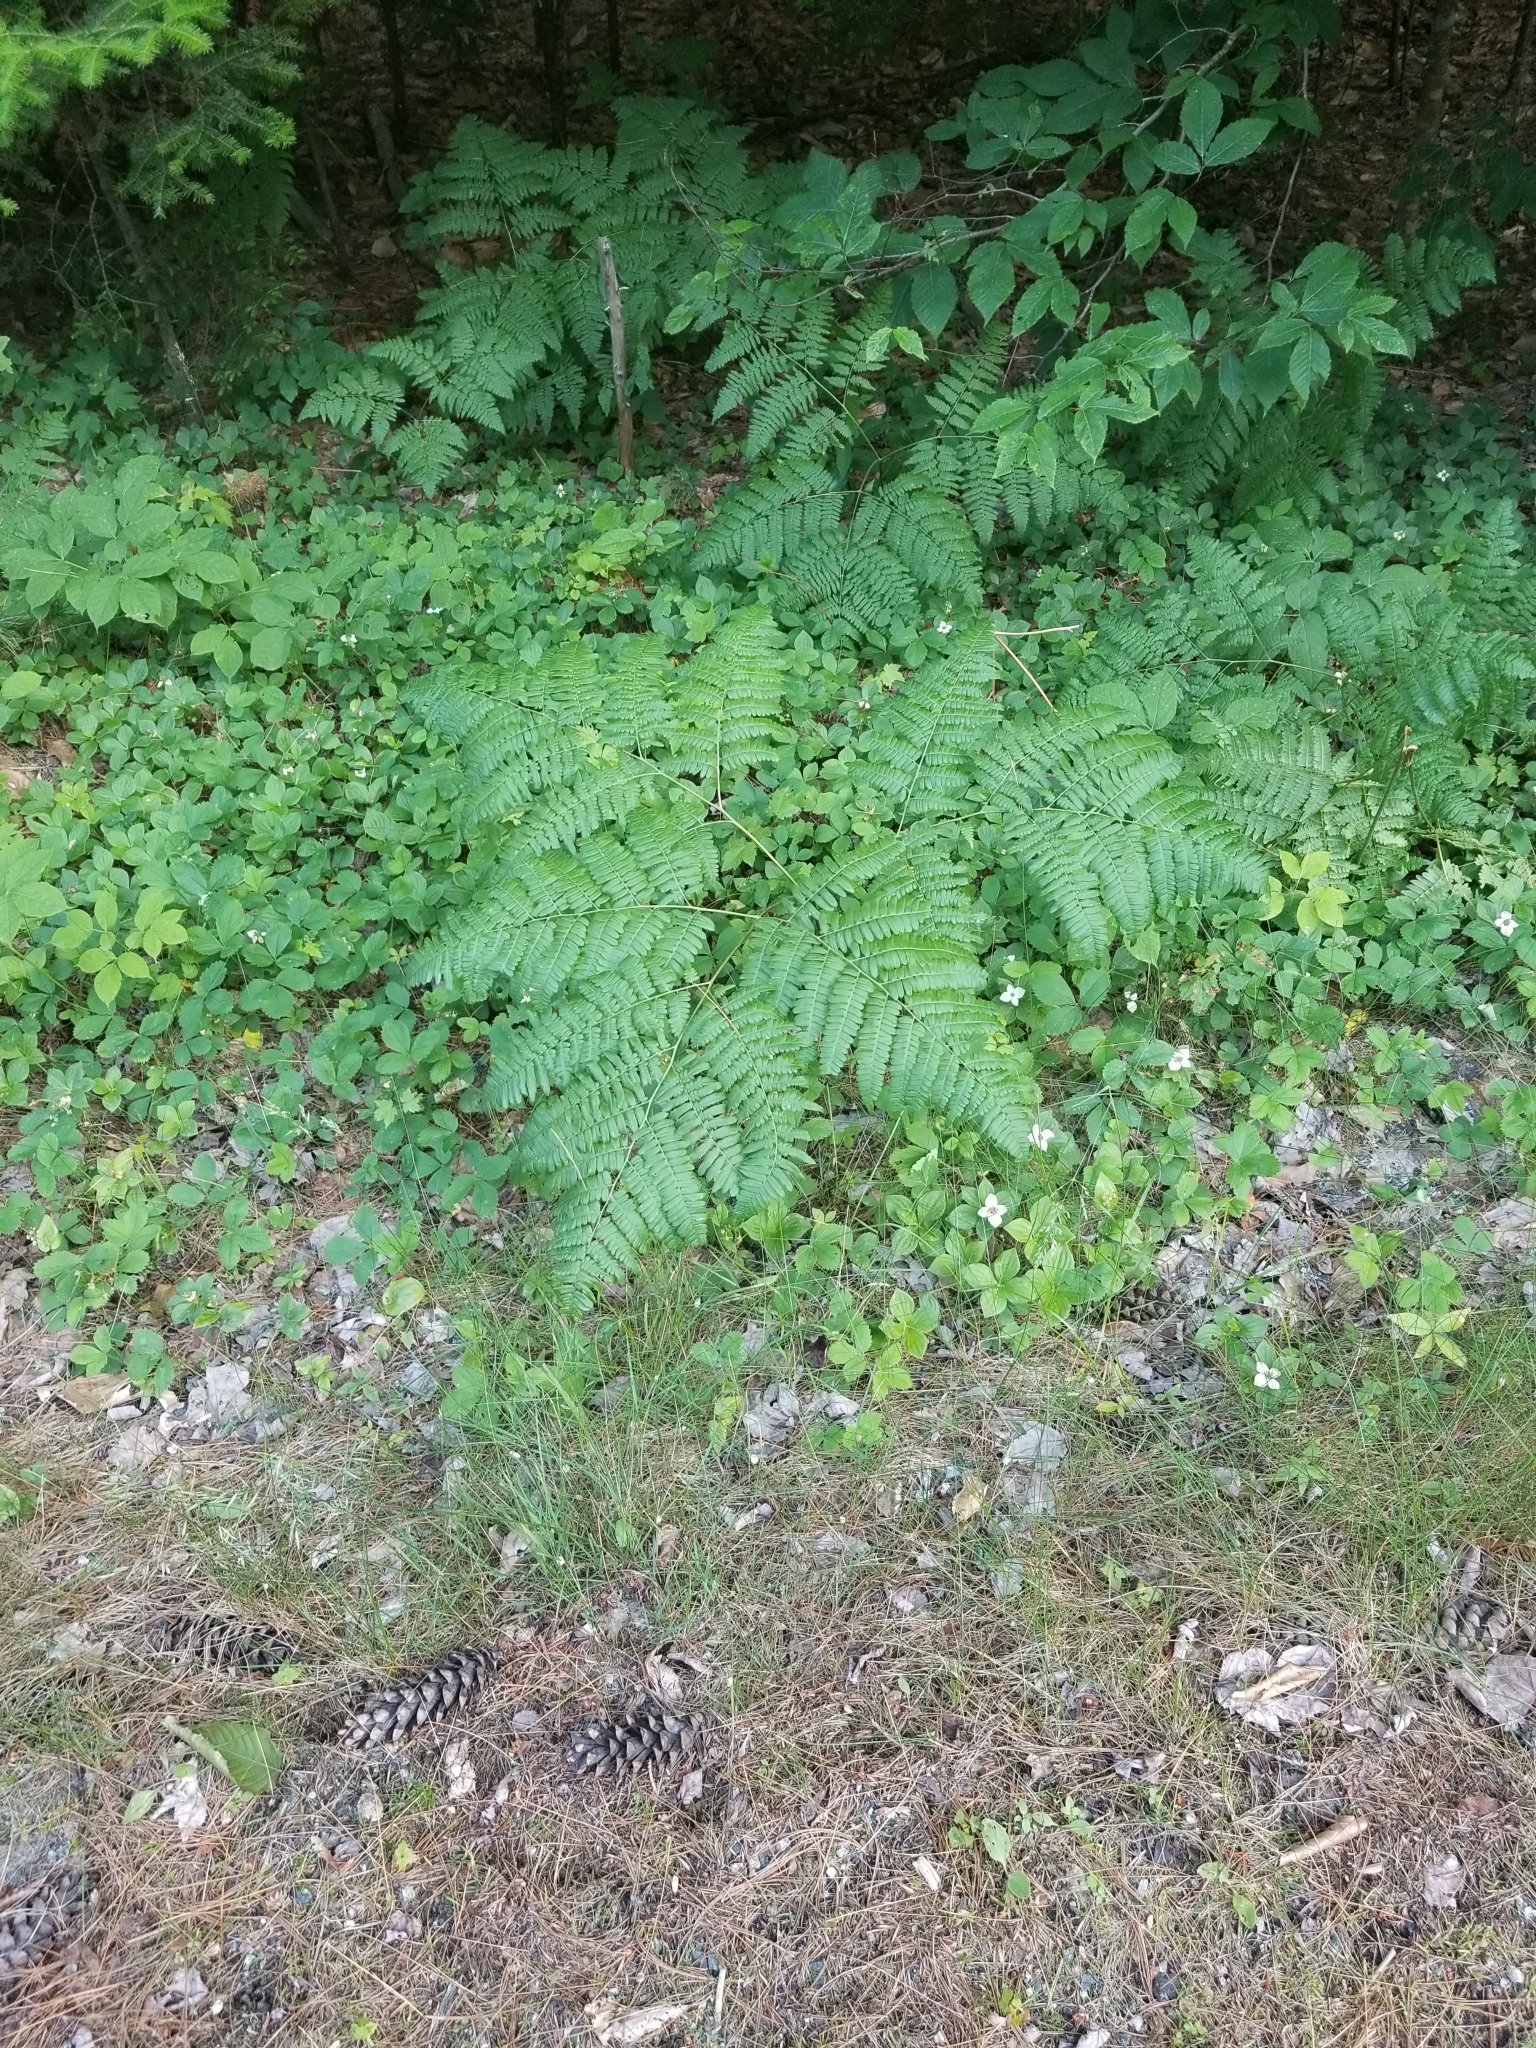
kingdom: Plantae
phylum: Tracheophyta
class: Polypodiopsida
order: Polypodiales
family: Dennstaedtiaceae
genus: Pteridium
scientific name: Pteridium aquilinum
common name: Bracken
